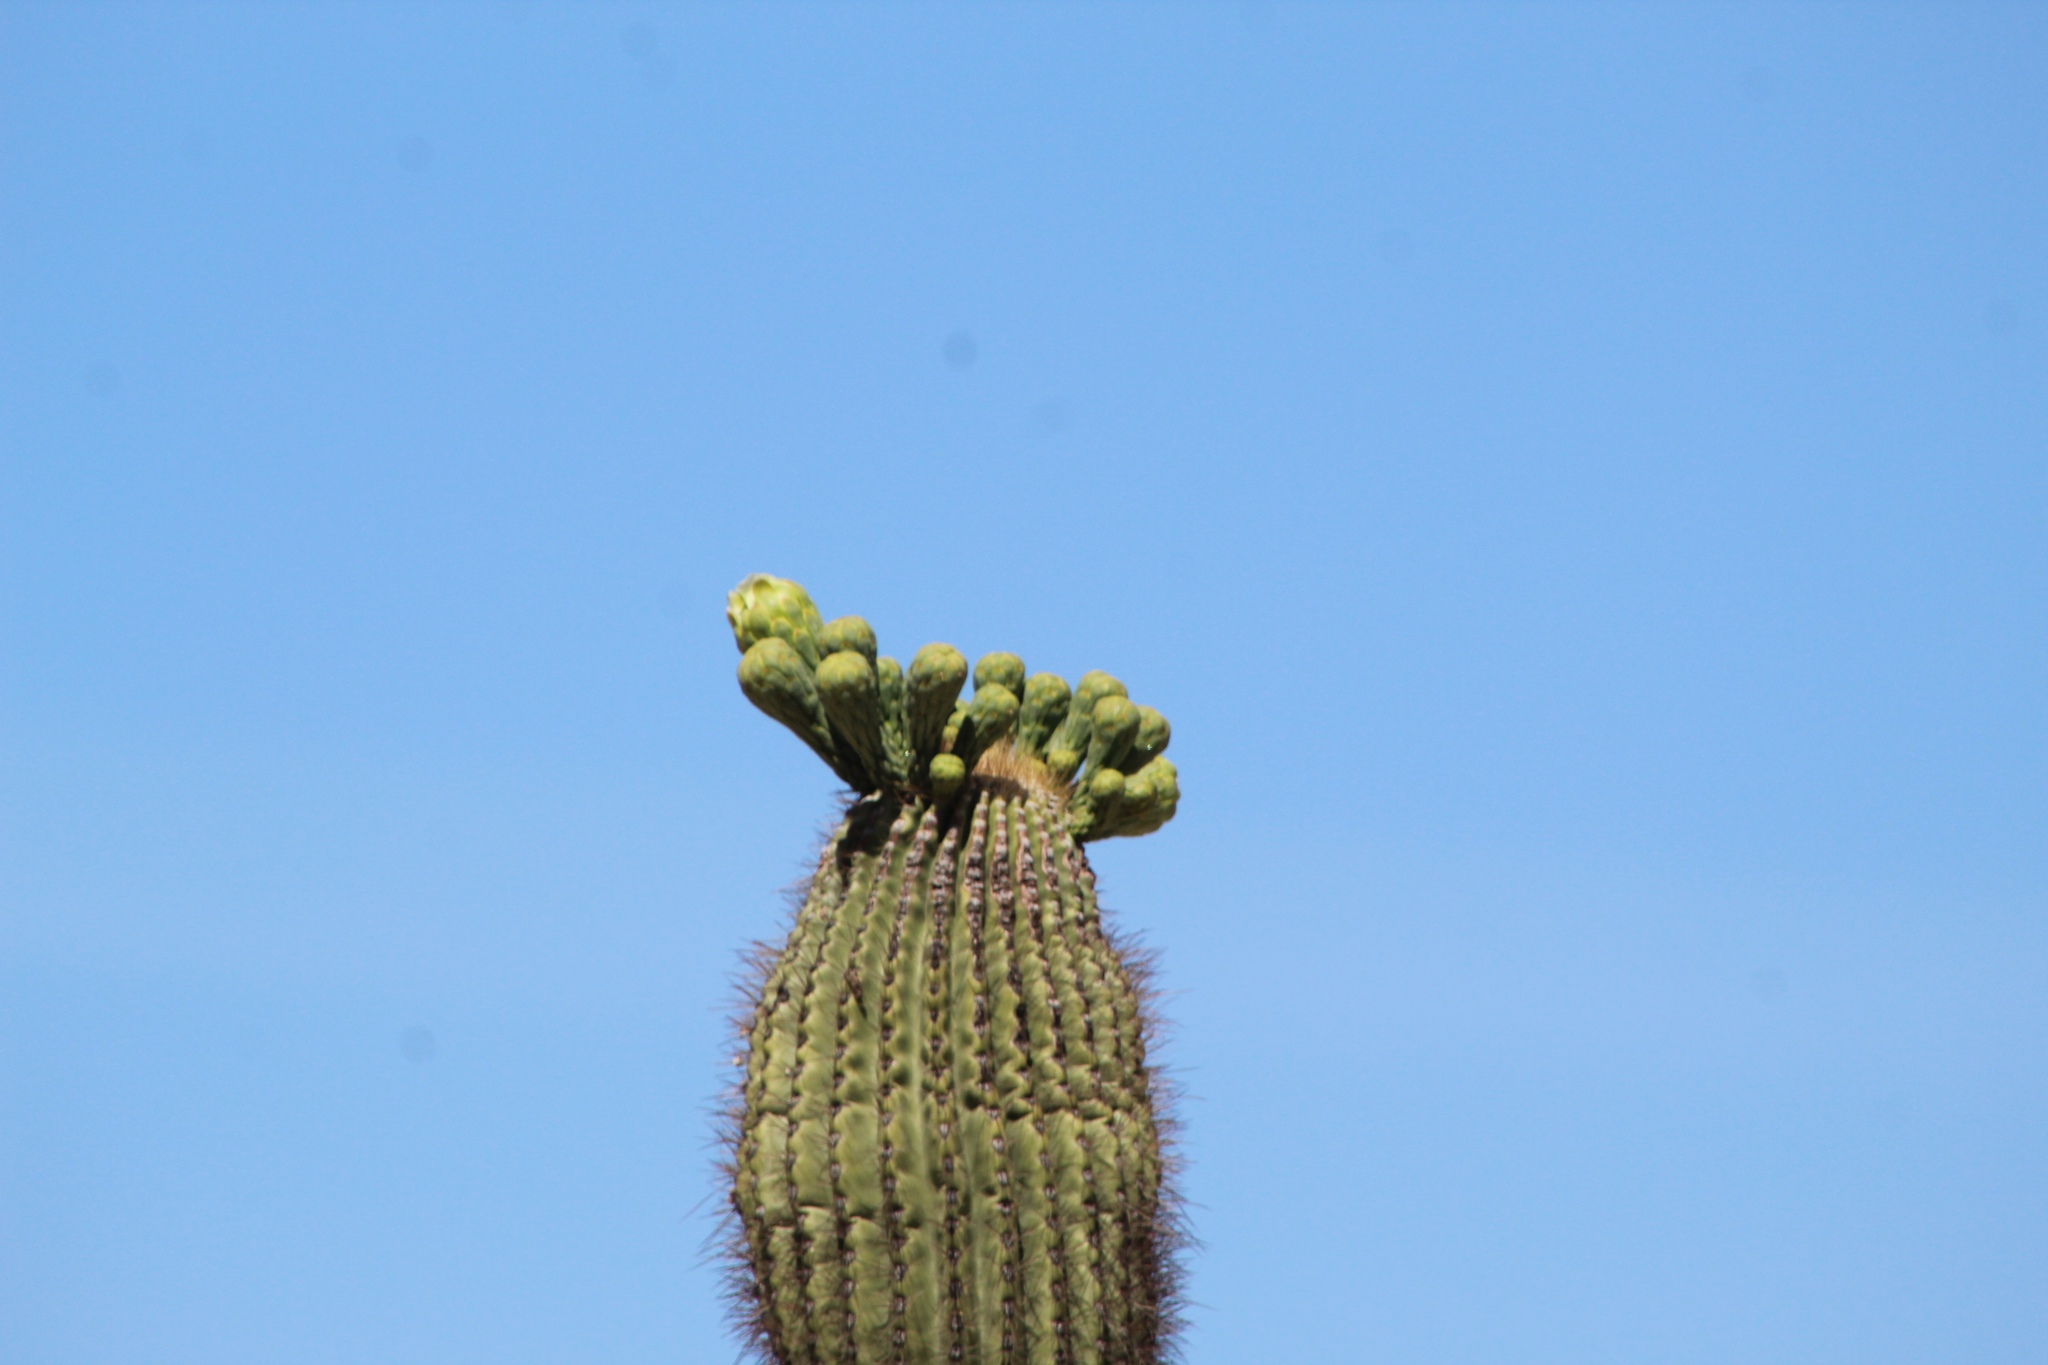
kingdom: Plantae
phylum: Tracheophyta
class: Magnoliopsida
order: Caryophyllales
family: Cactaceae
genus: Carnegiea
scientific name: Carnegiea gigantea
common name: Saguaro
